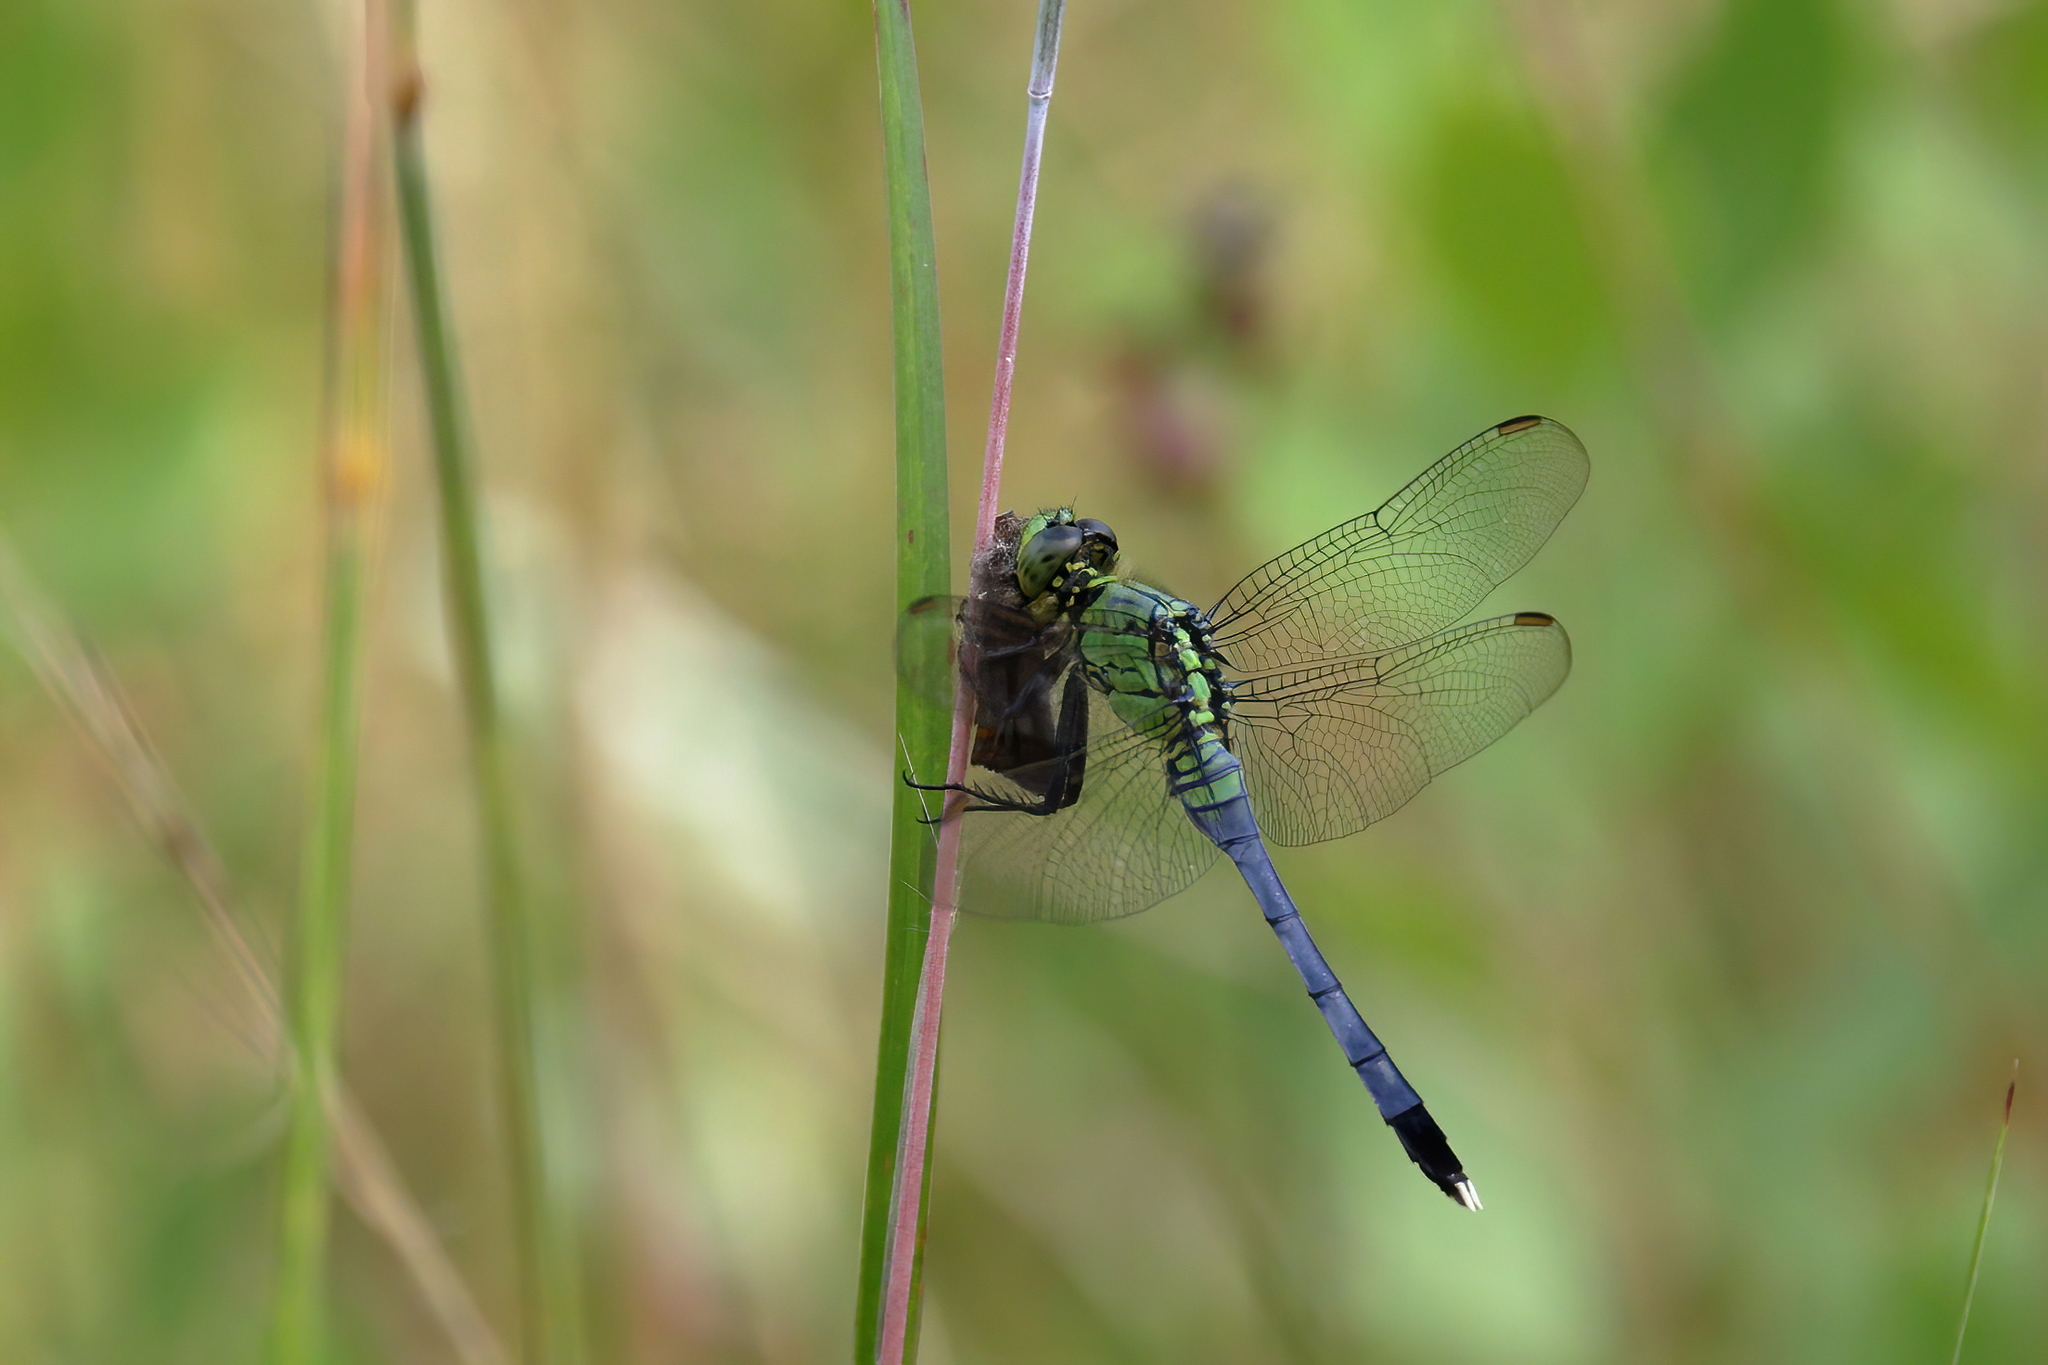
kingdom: Animalia
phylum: Arthropoda
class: Insecta
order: Odonata
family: Libellulidae
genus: Erythemis
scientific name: Erythemis simplicicollis
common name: Eastern pondhawk
